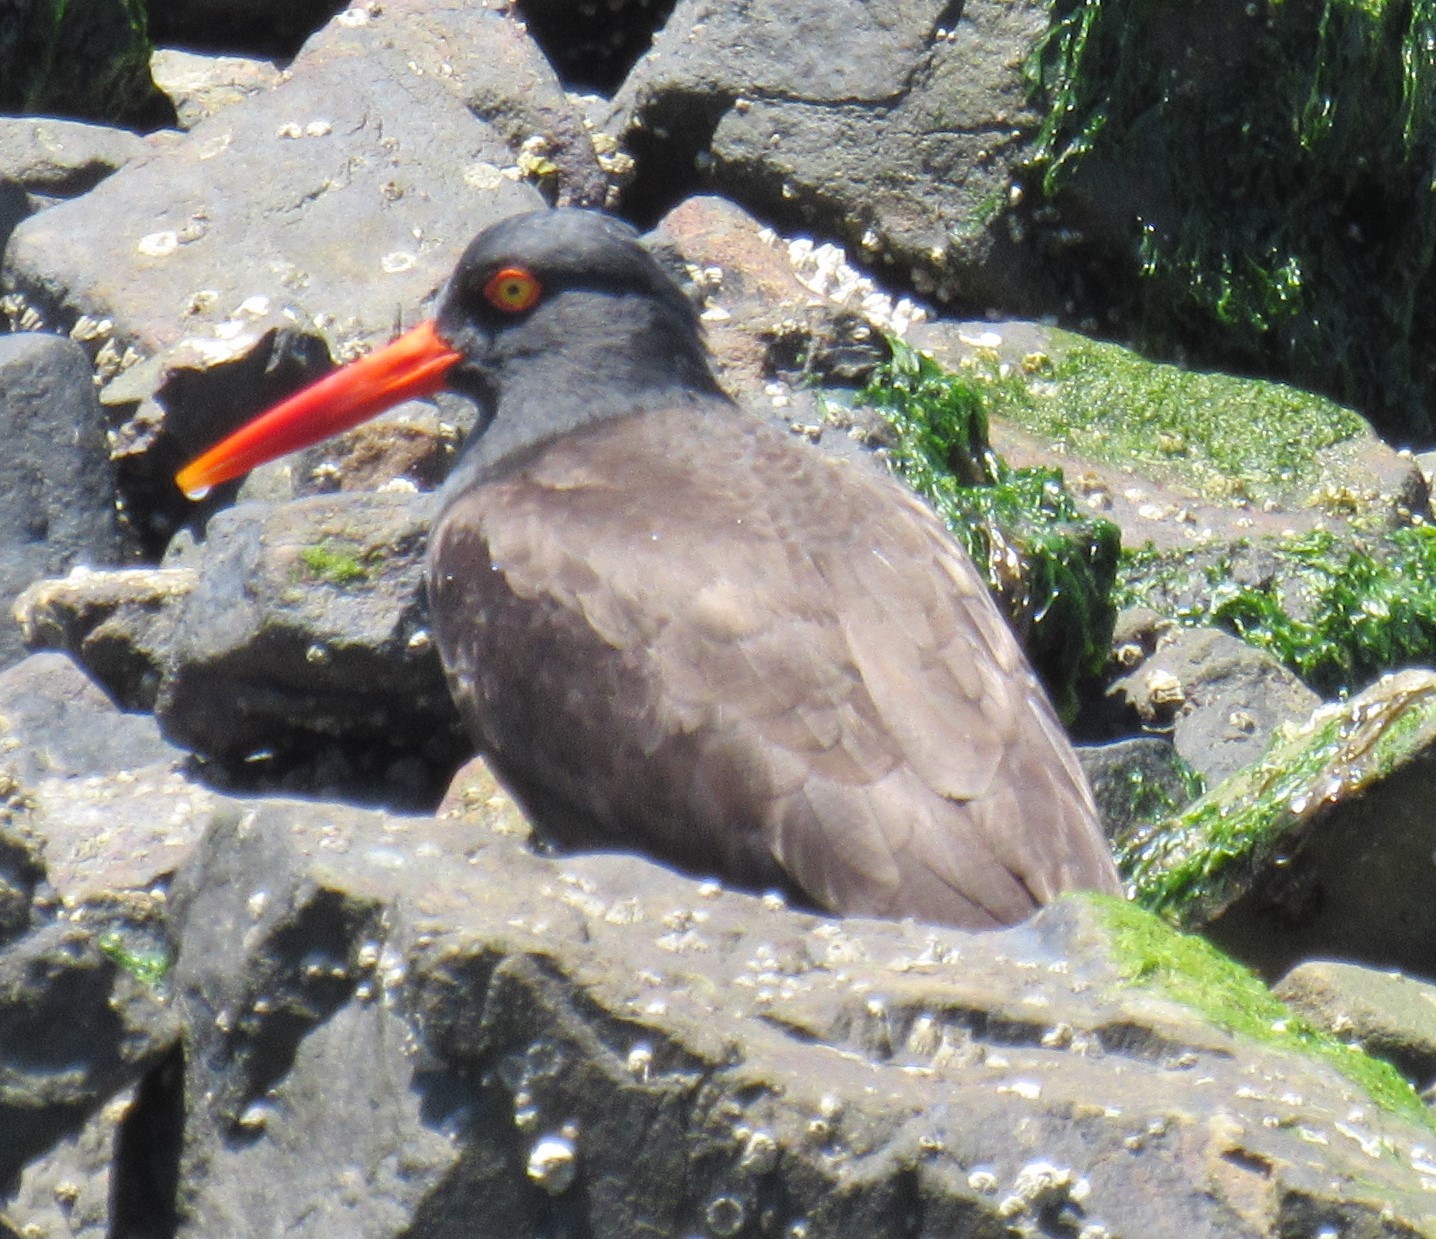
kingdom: Animalia
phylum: Chordata
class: Aves
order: Charadriiformes
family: Haematopodidae
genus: Haematopus
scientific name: Haematopus bachmani
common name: Black oystercatcher
